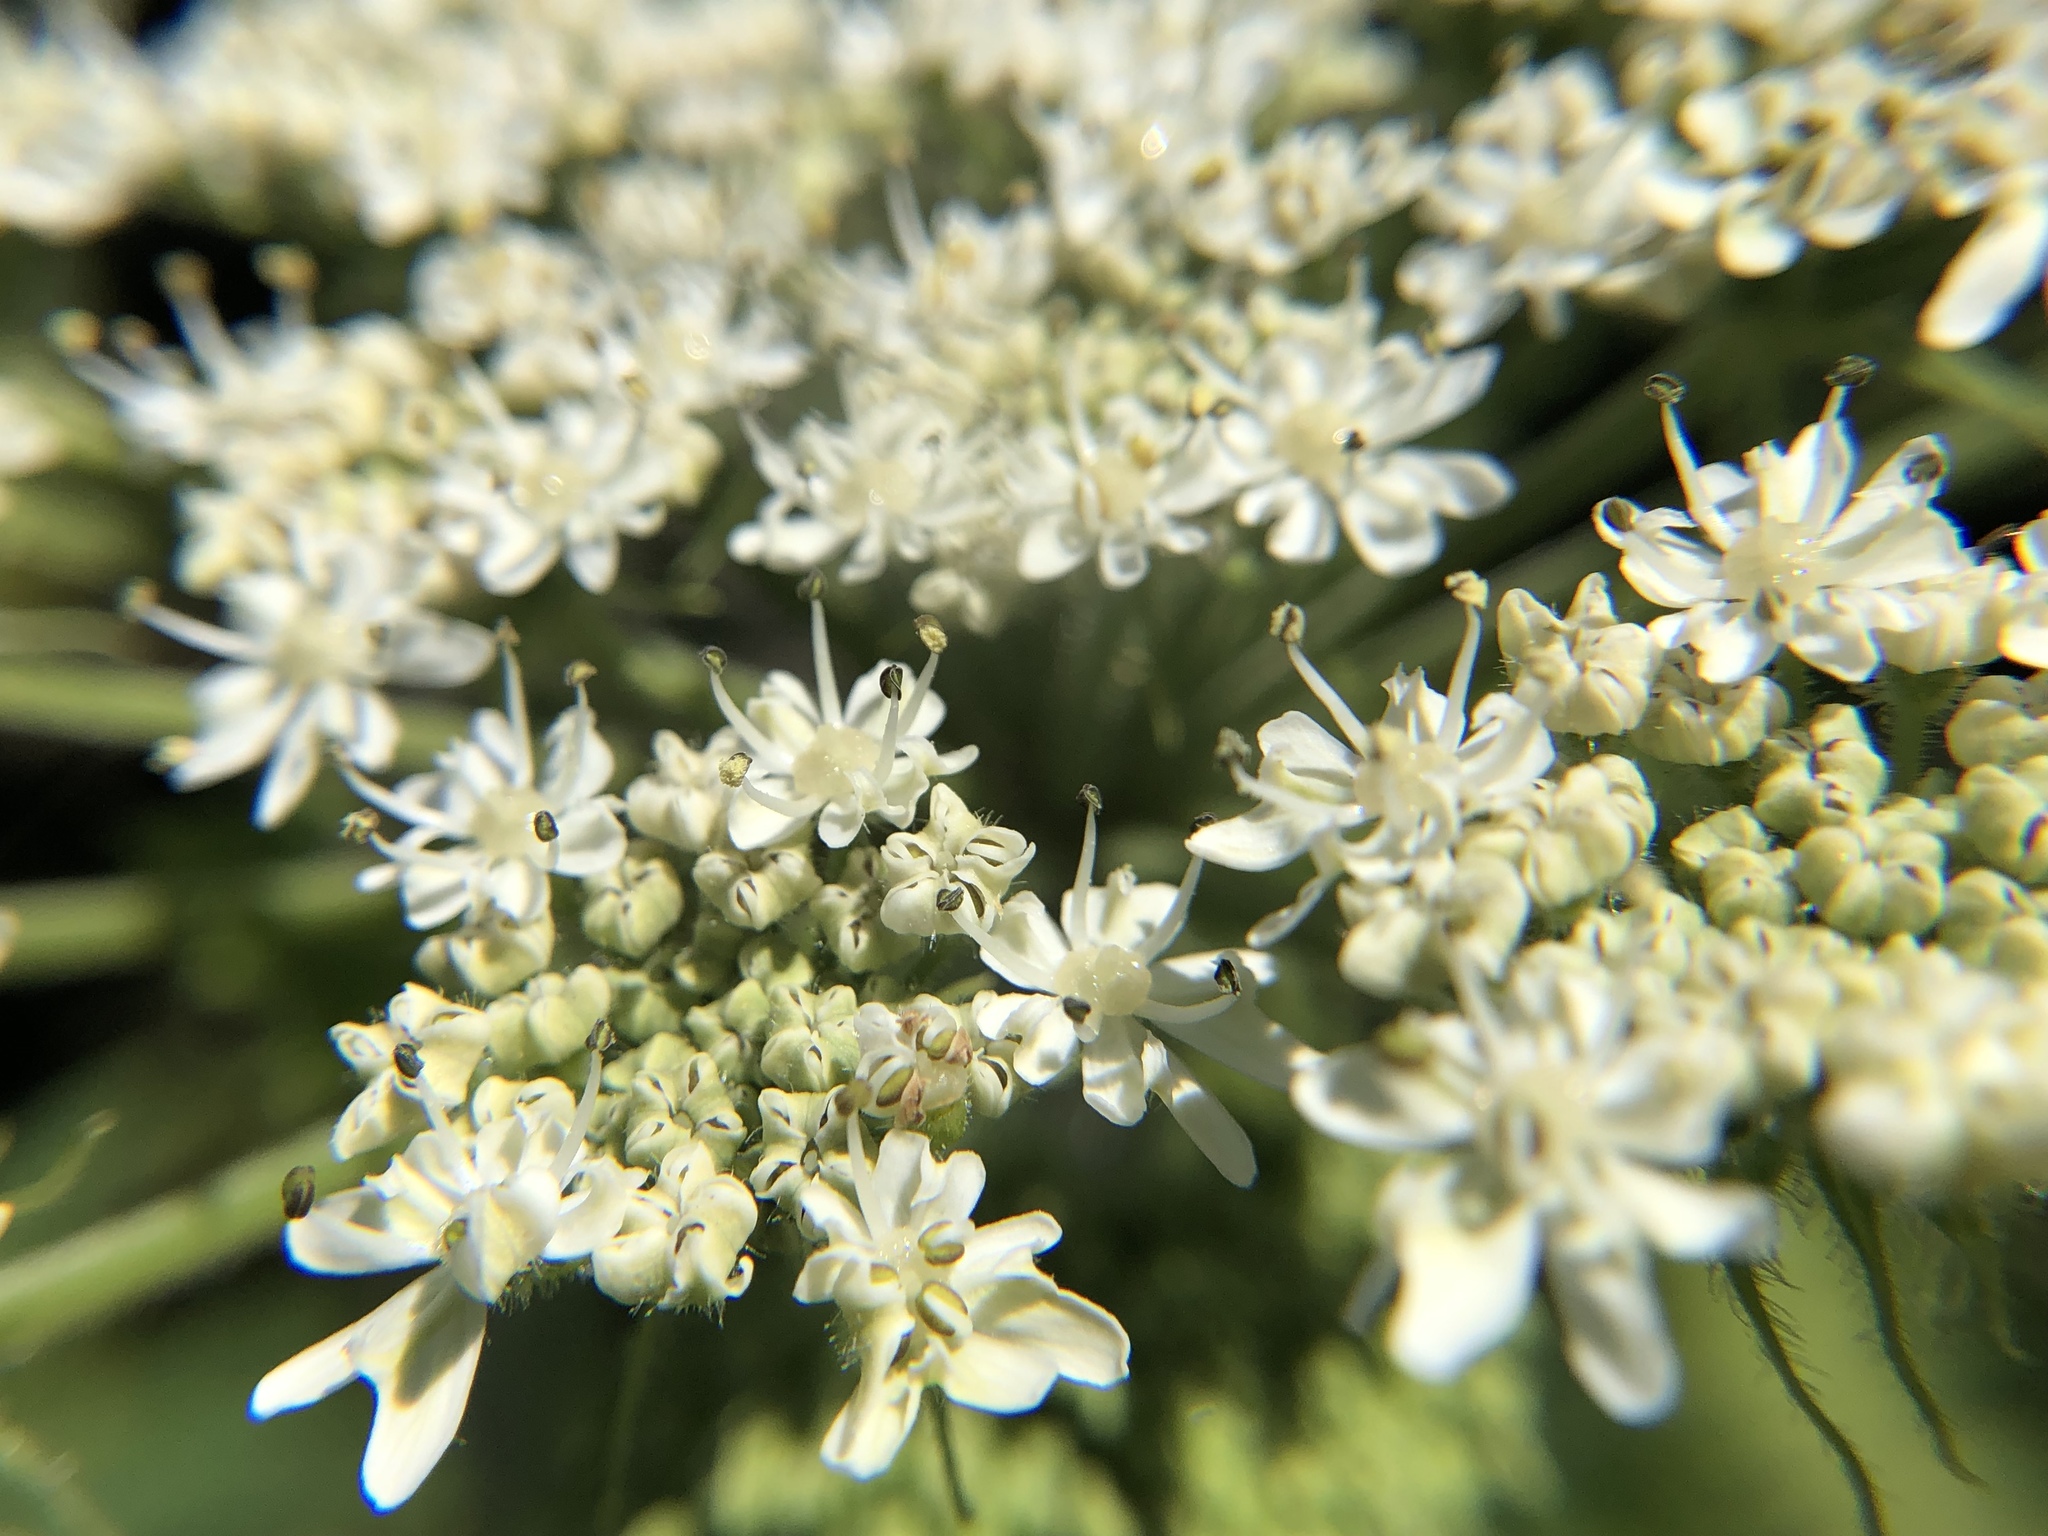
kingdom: Plantae
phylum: Tracheophyta
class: Magnoliopsida
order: Apiales
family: Apiaceae
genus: Heracleum
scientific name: Heracleum maximum
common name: American cow parsnip
